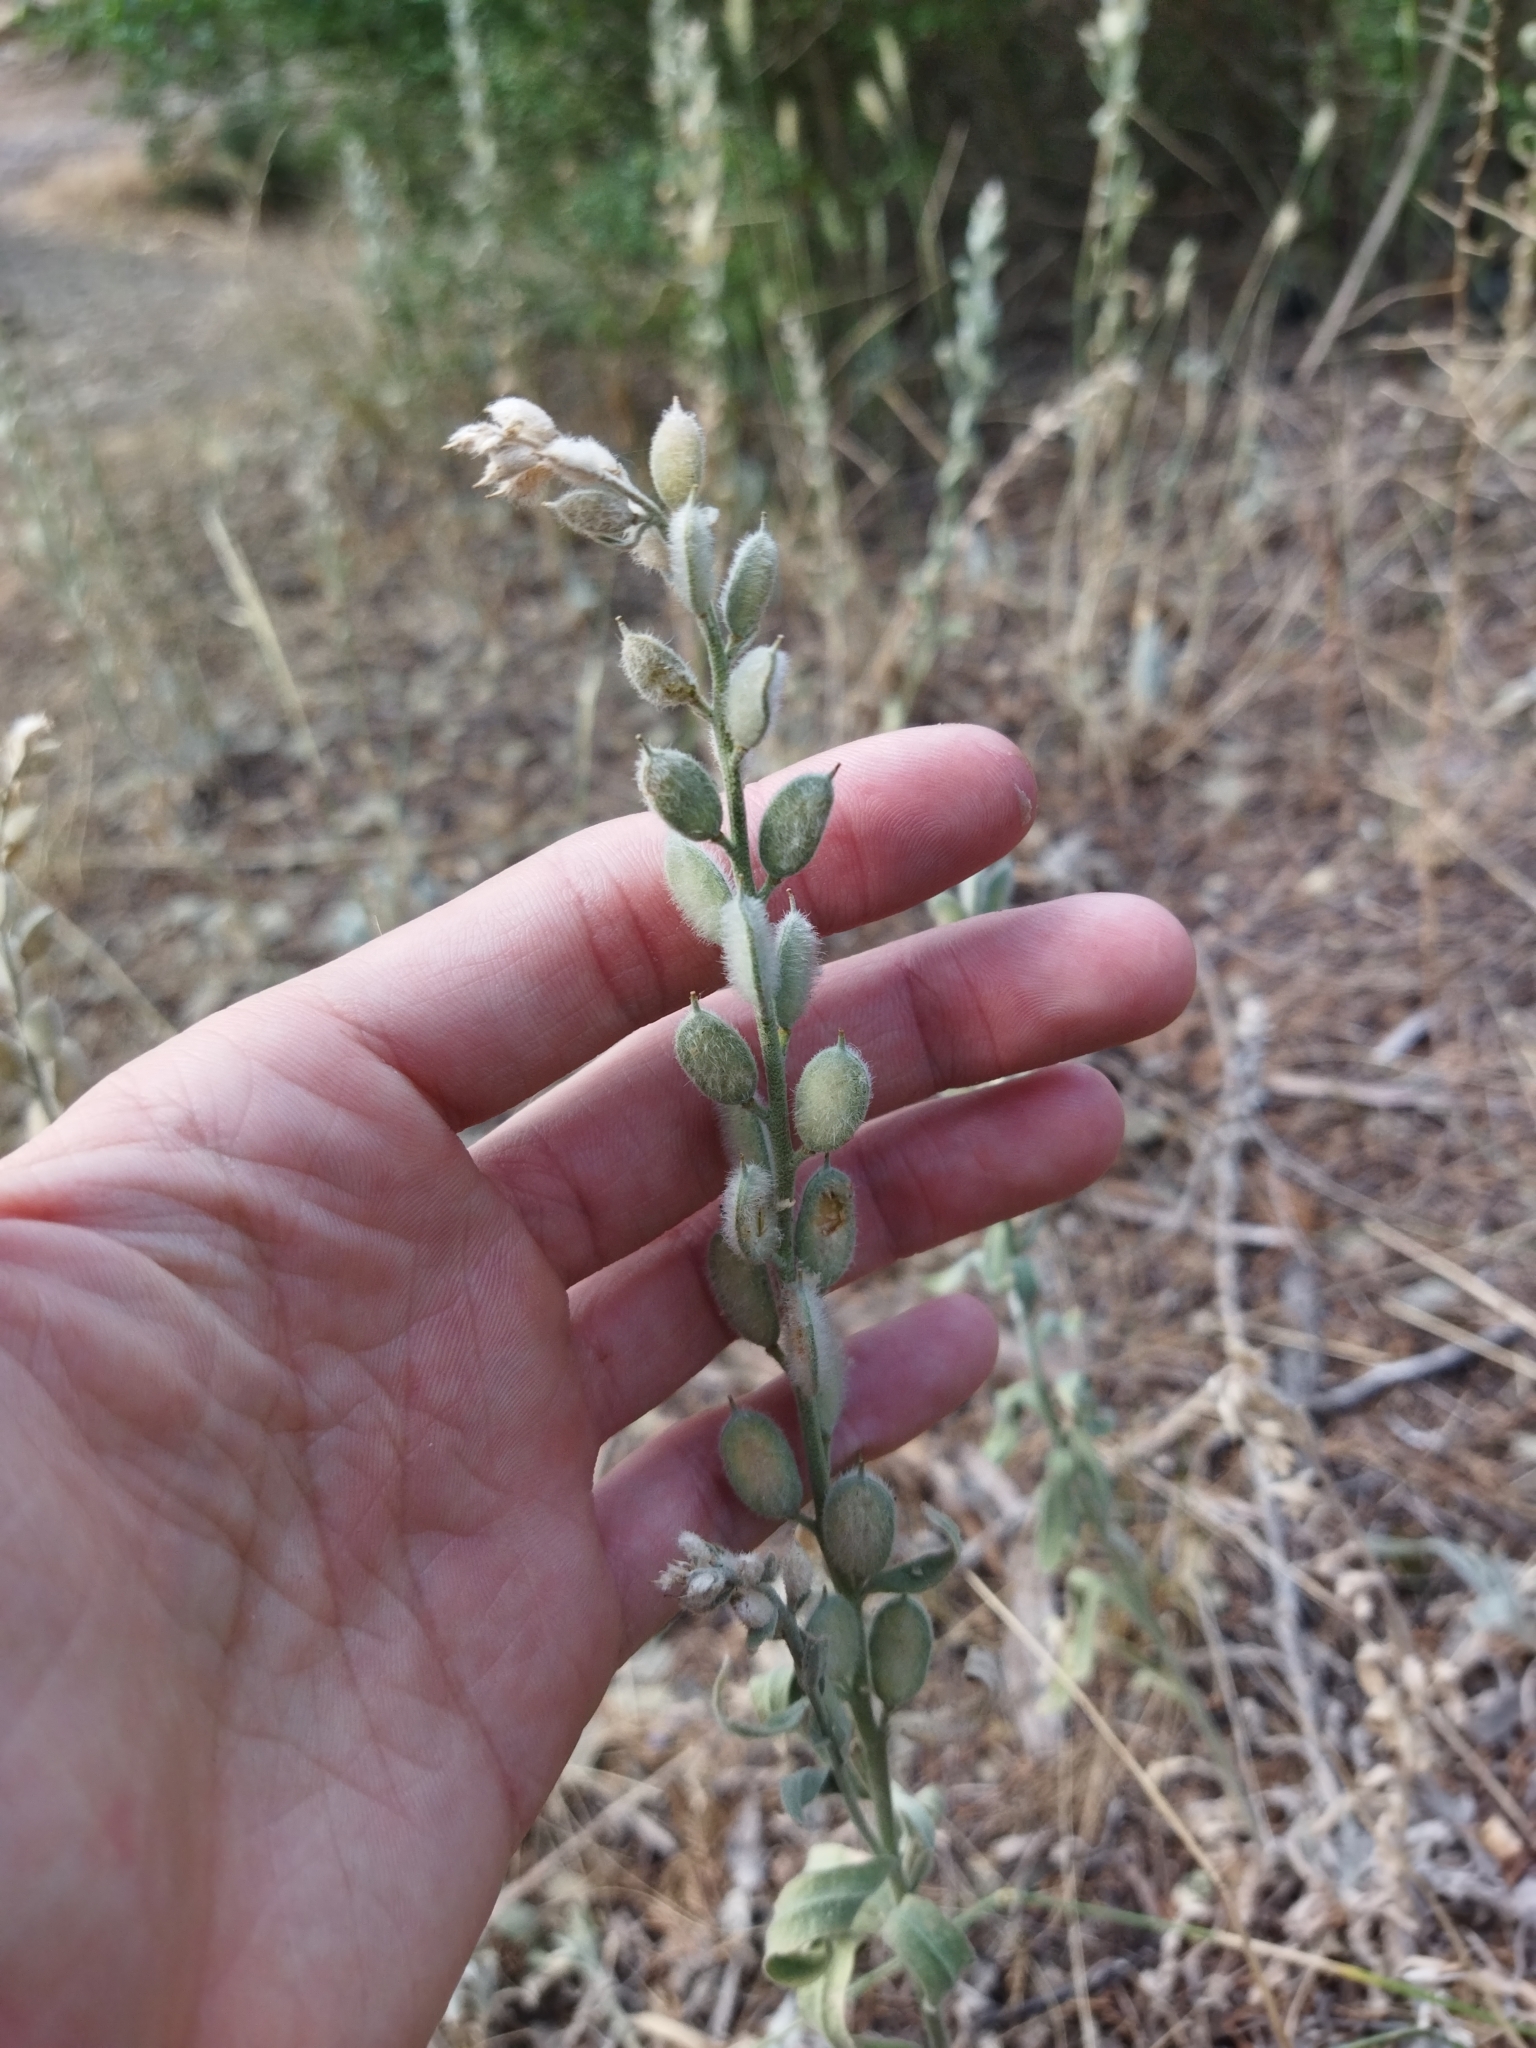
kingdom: Plantae
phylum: Tracheophyta
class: Magnoliopsida
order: Brassicales
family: Brassicaceae
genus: Fibigia
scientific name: Fibigia clypeata
